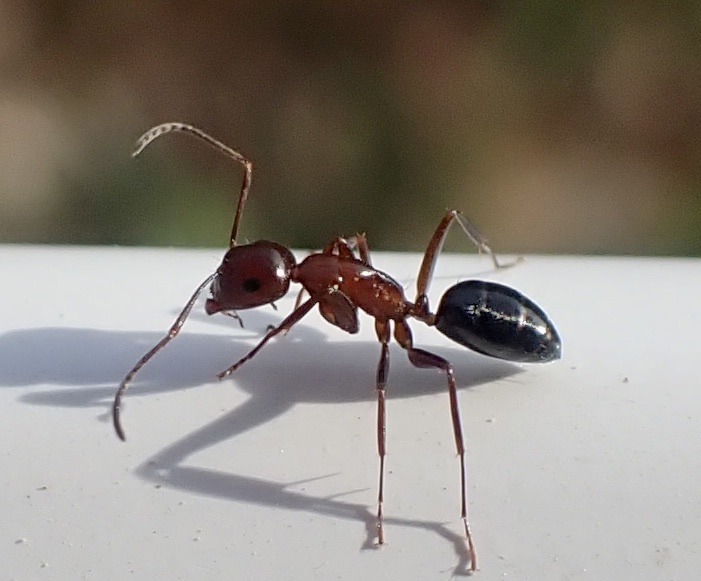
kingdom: Animalia
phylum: Arthropoda
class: Insecta
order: Hymenoptera
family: Formicidae
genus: Camponotus
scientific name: Camponotus decipiens
